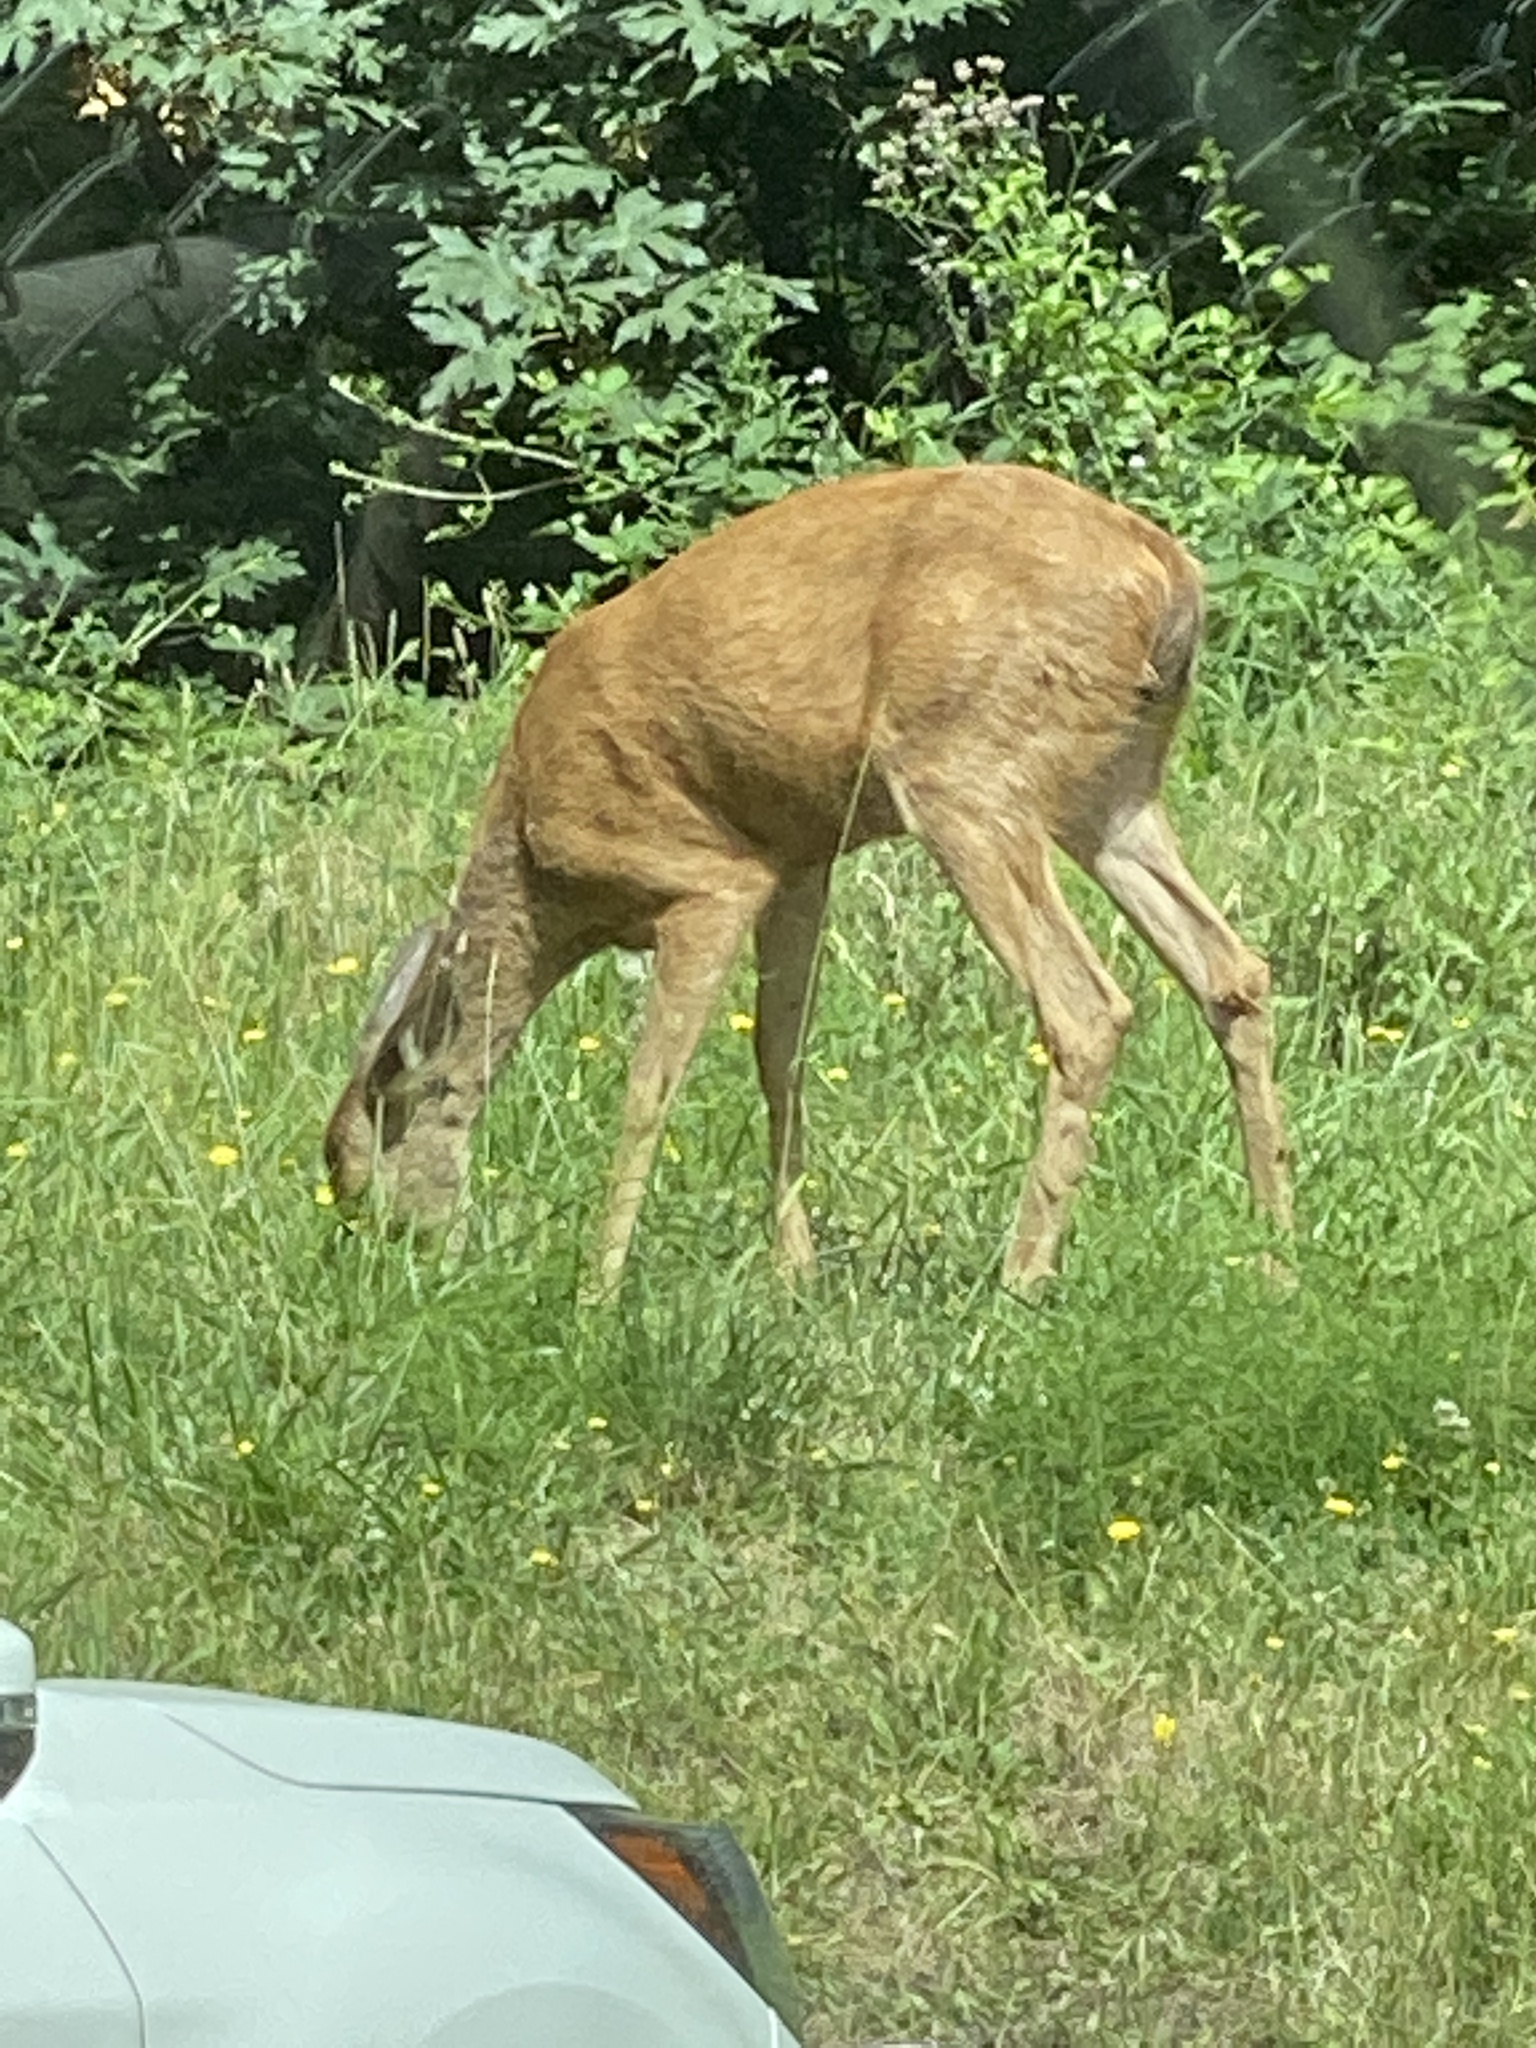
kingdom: Animalia
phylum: Chordata
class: Mammalia
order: Artiodactyla
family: Cervidae
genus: Odocoileus
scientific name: Odocoileus hemionus
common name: Mule deer
